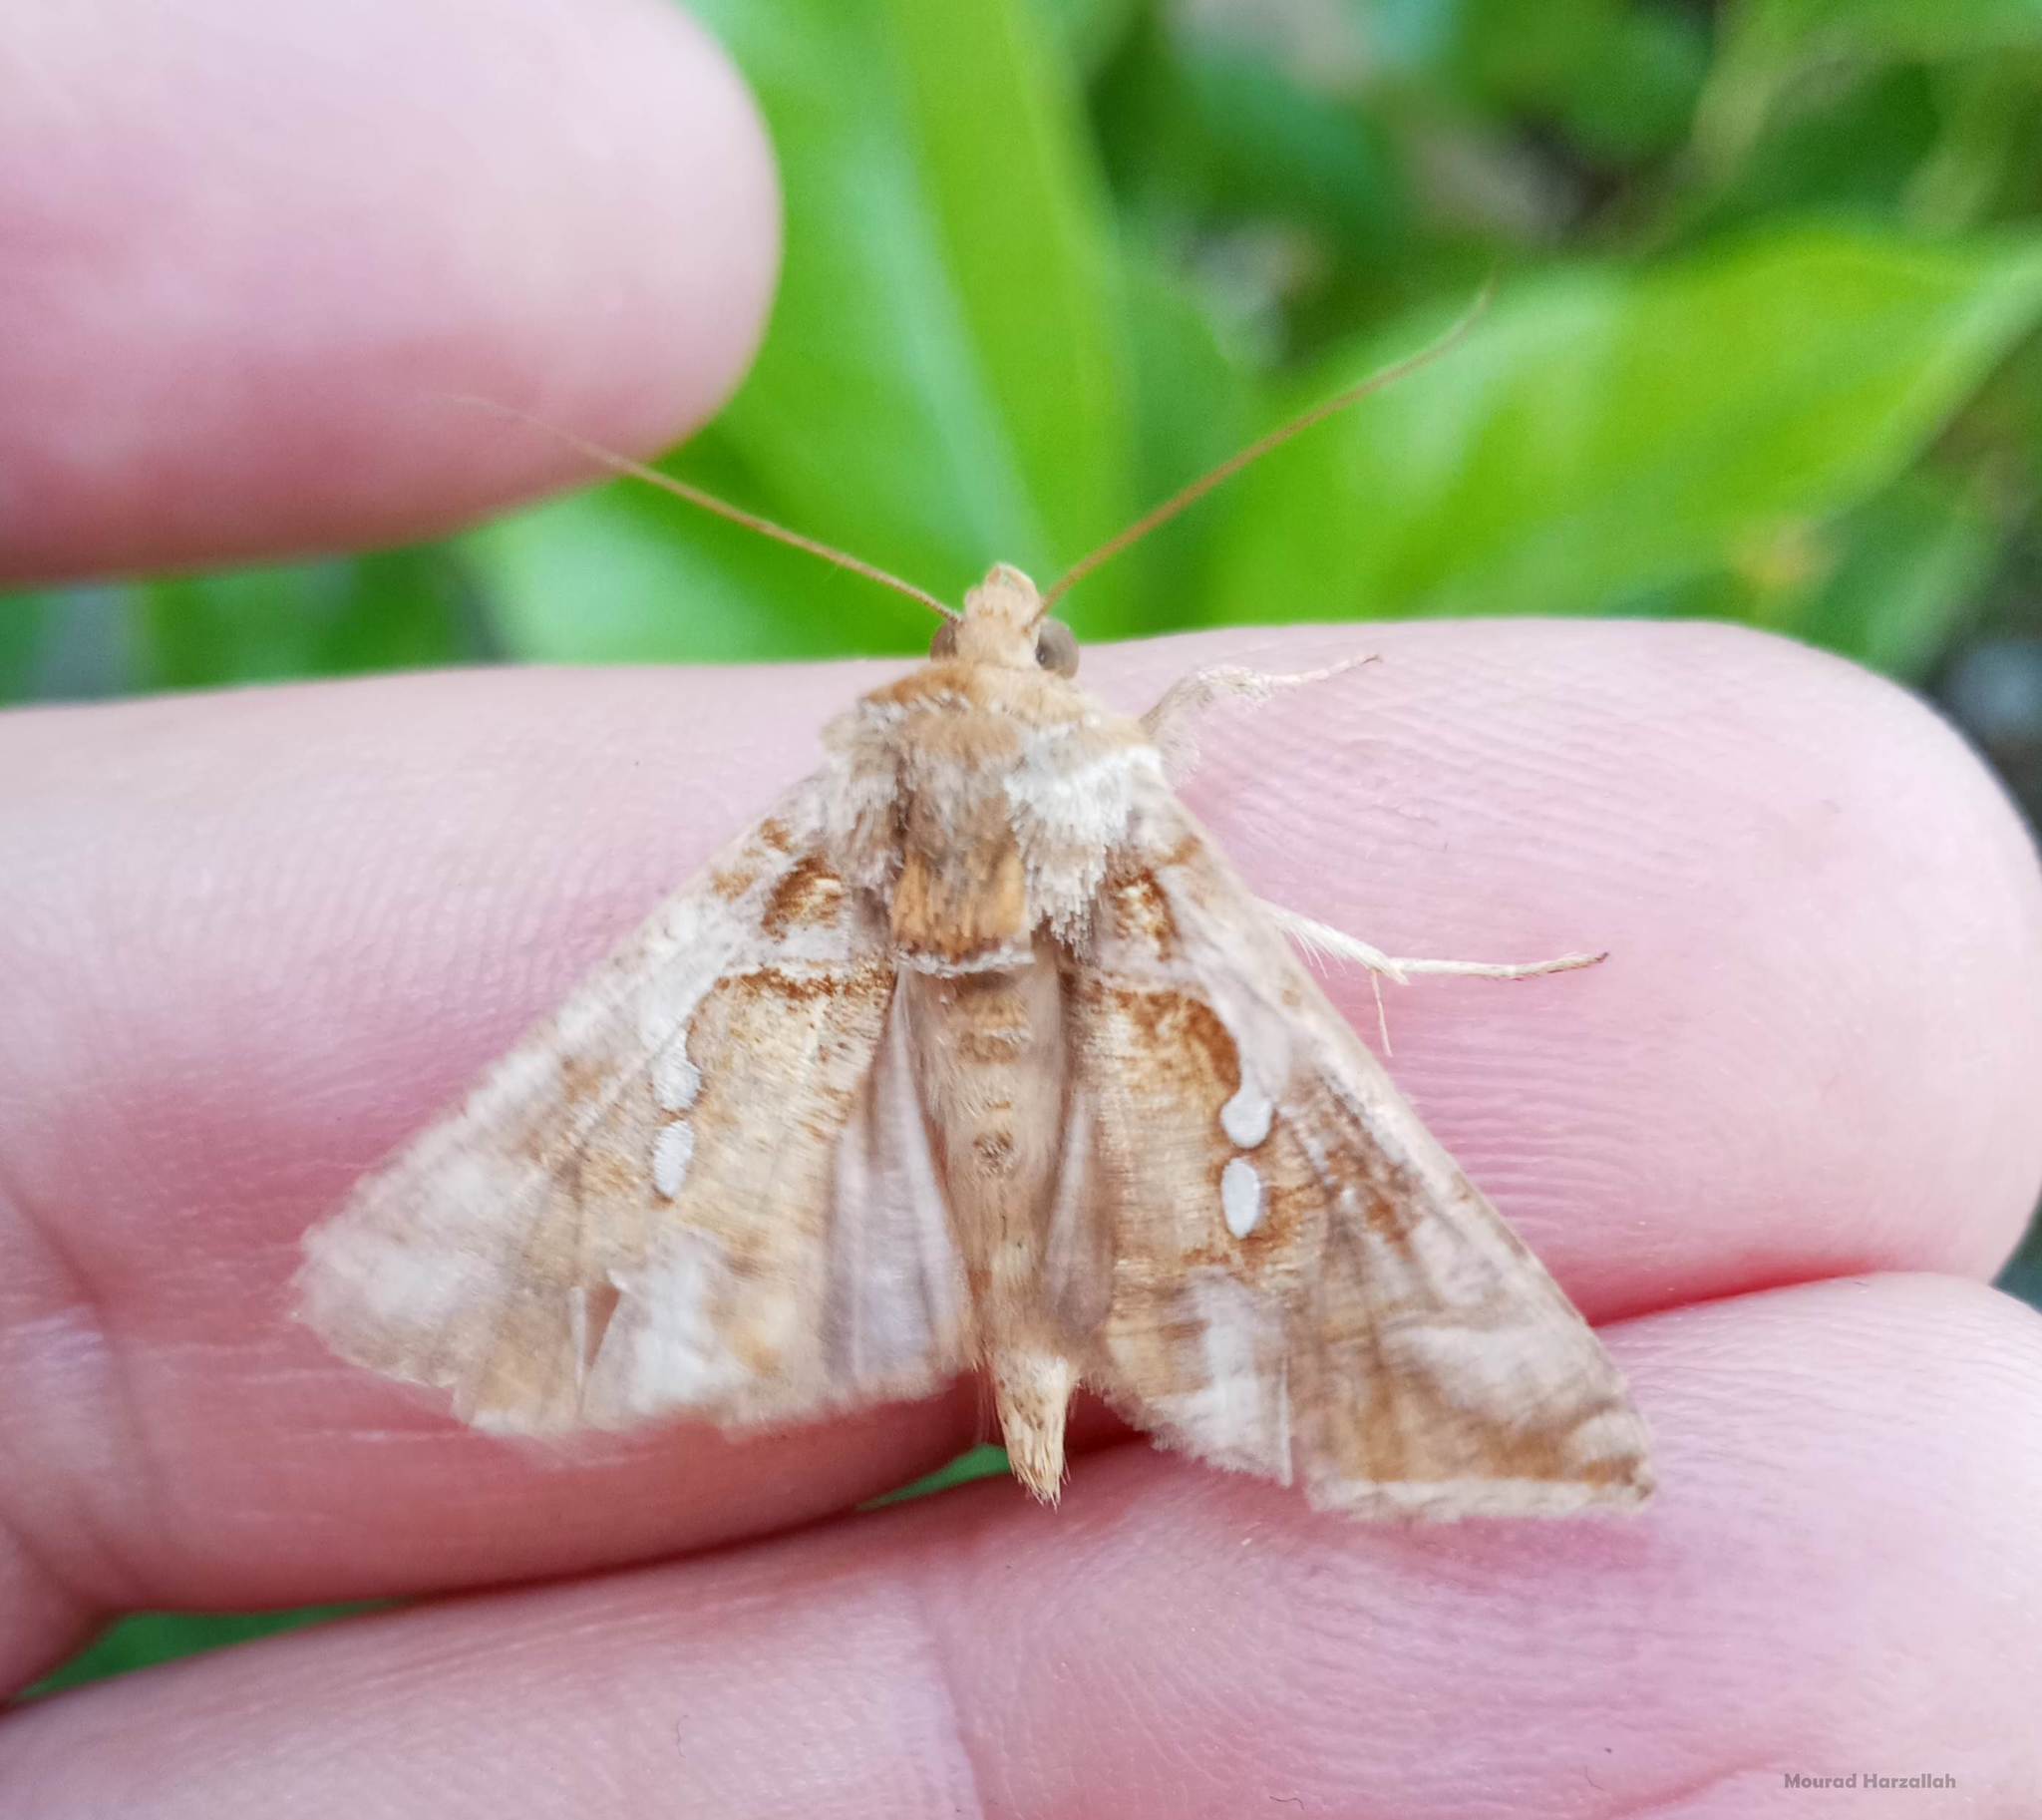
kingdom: Animalia
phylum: Arthropoda
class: Insecta
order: Lepidoptera
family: Noctuidae
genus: Chrysodeixis
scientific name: Chrysodeixis chalcites
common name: Golden twin-spot
